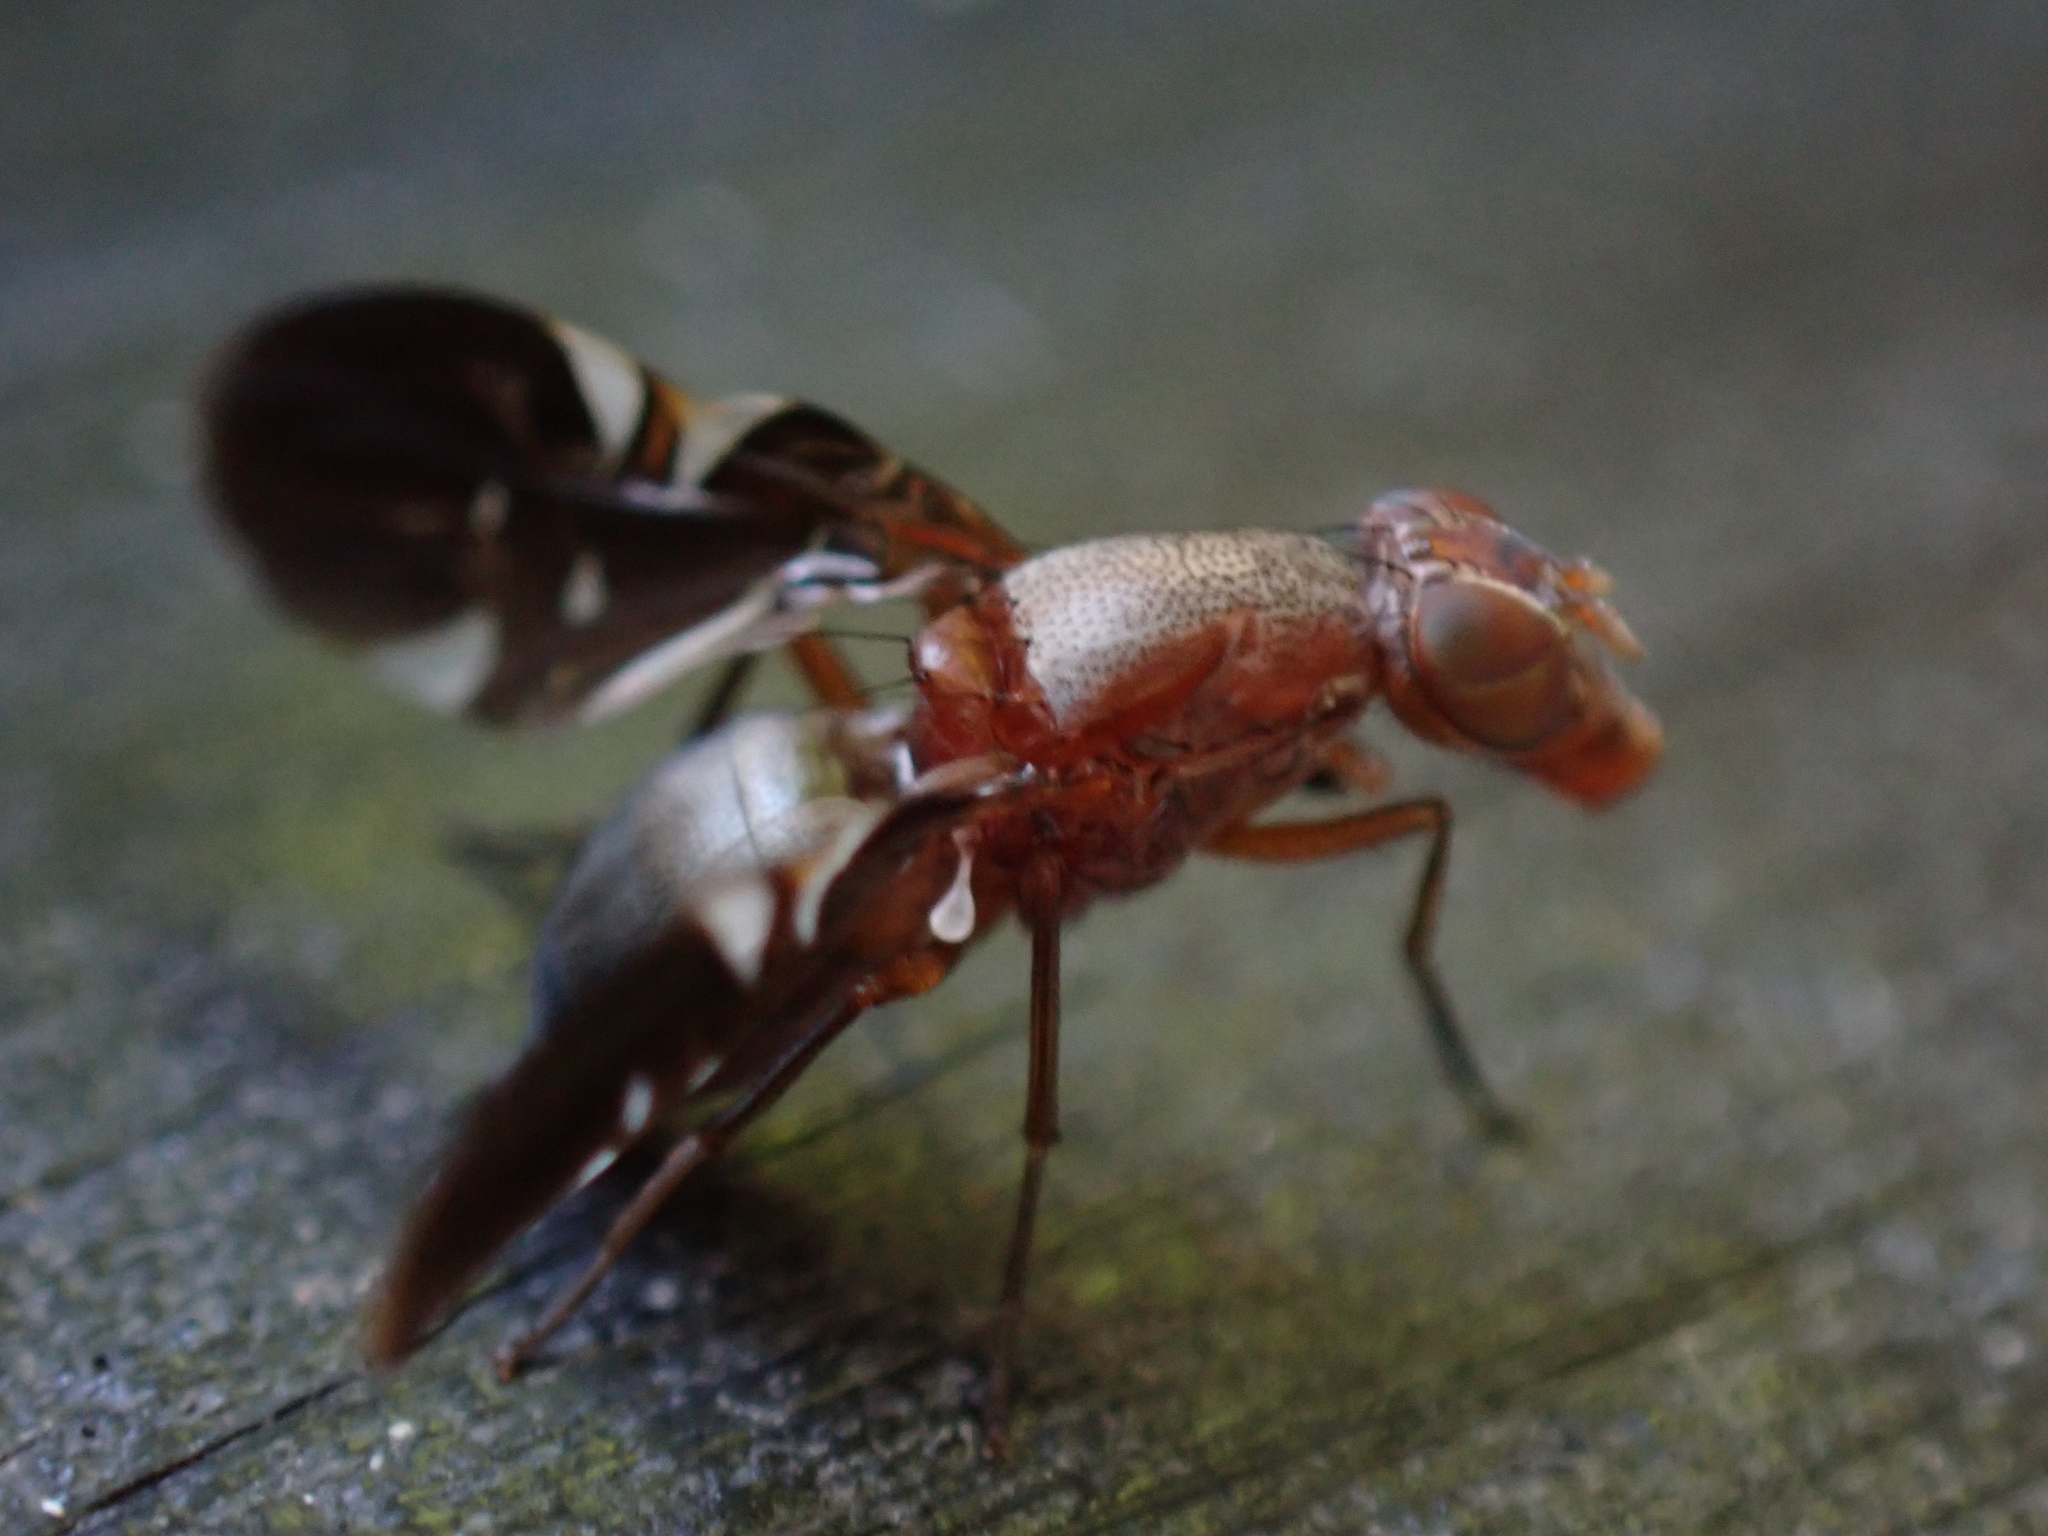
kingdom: Animalia
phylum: Arthropoda
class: Insecta
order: Diptera
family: Ulidiidae
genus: Delphinia
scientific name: Delphinia picta
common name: Common picture-winged fly
